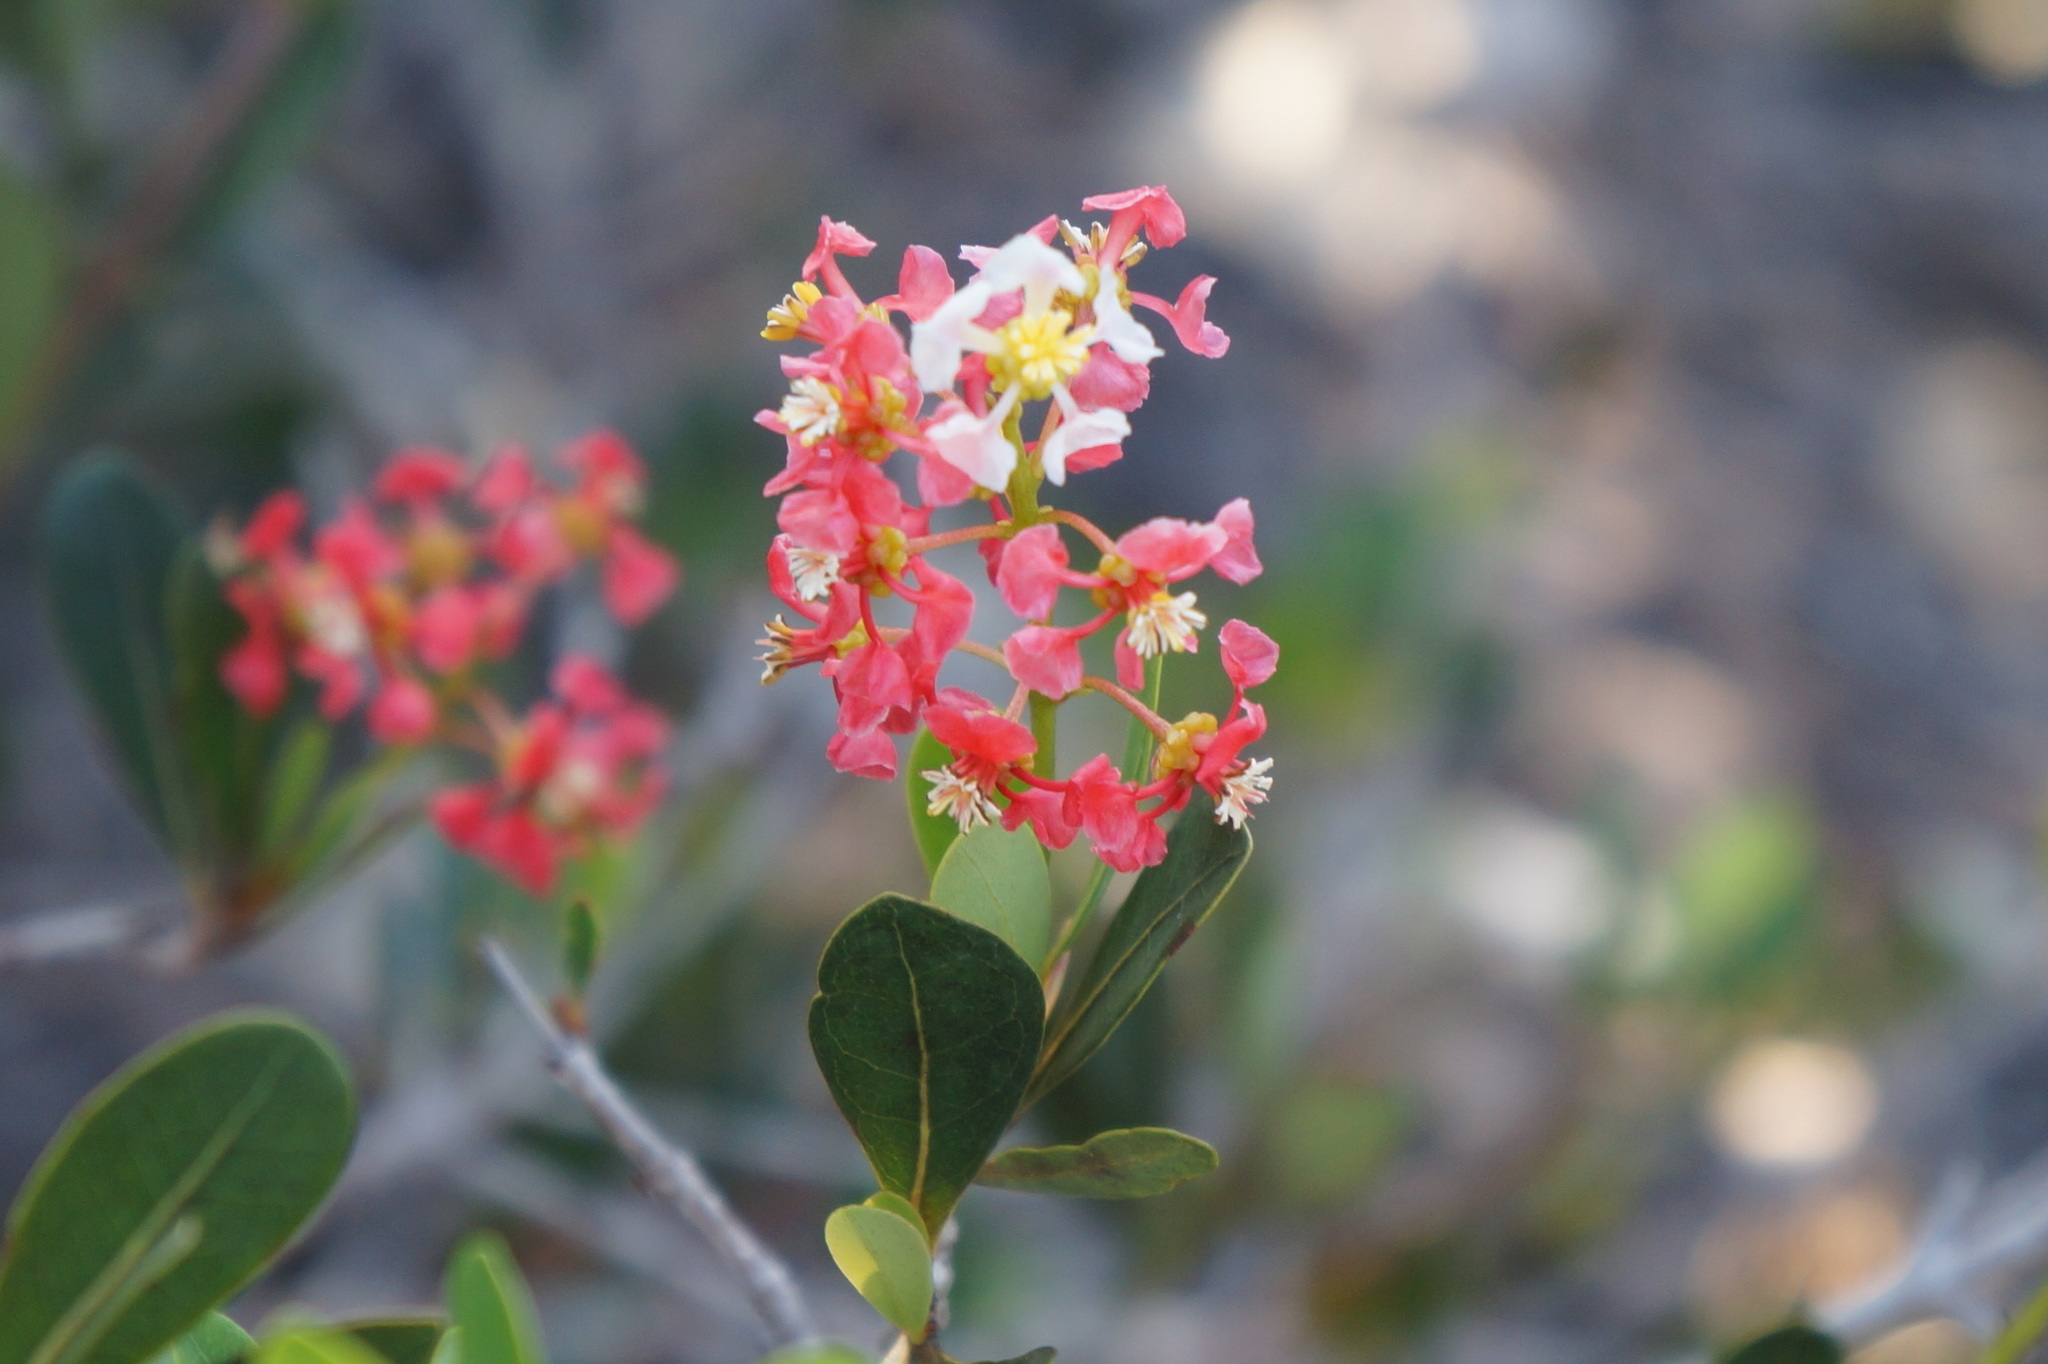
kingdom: Plantae
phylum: Tracheophyta
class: Magnoliopsida
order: Malpighiales
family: Malpighiaceae
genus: Byrsonima
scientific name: Byrsonima lucida
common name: Clam-cherry
